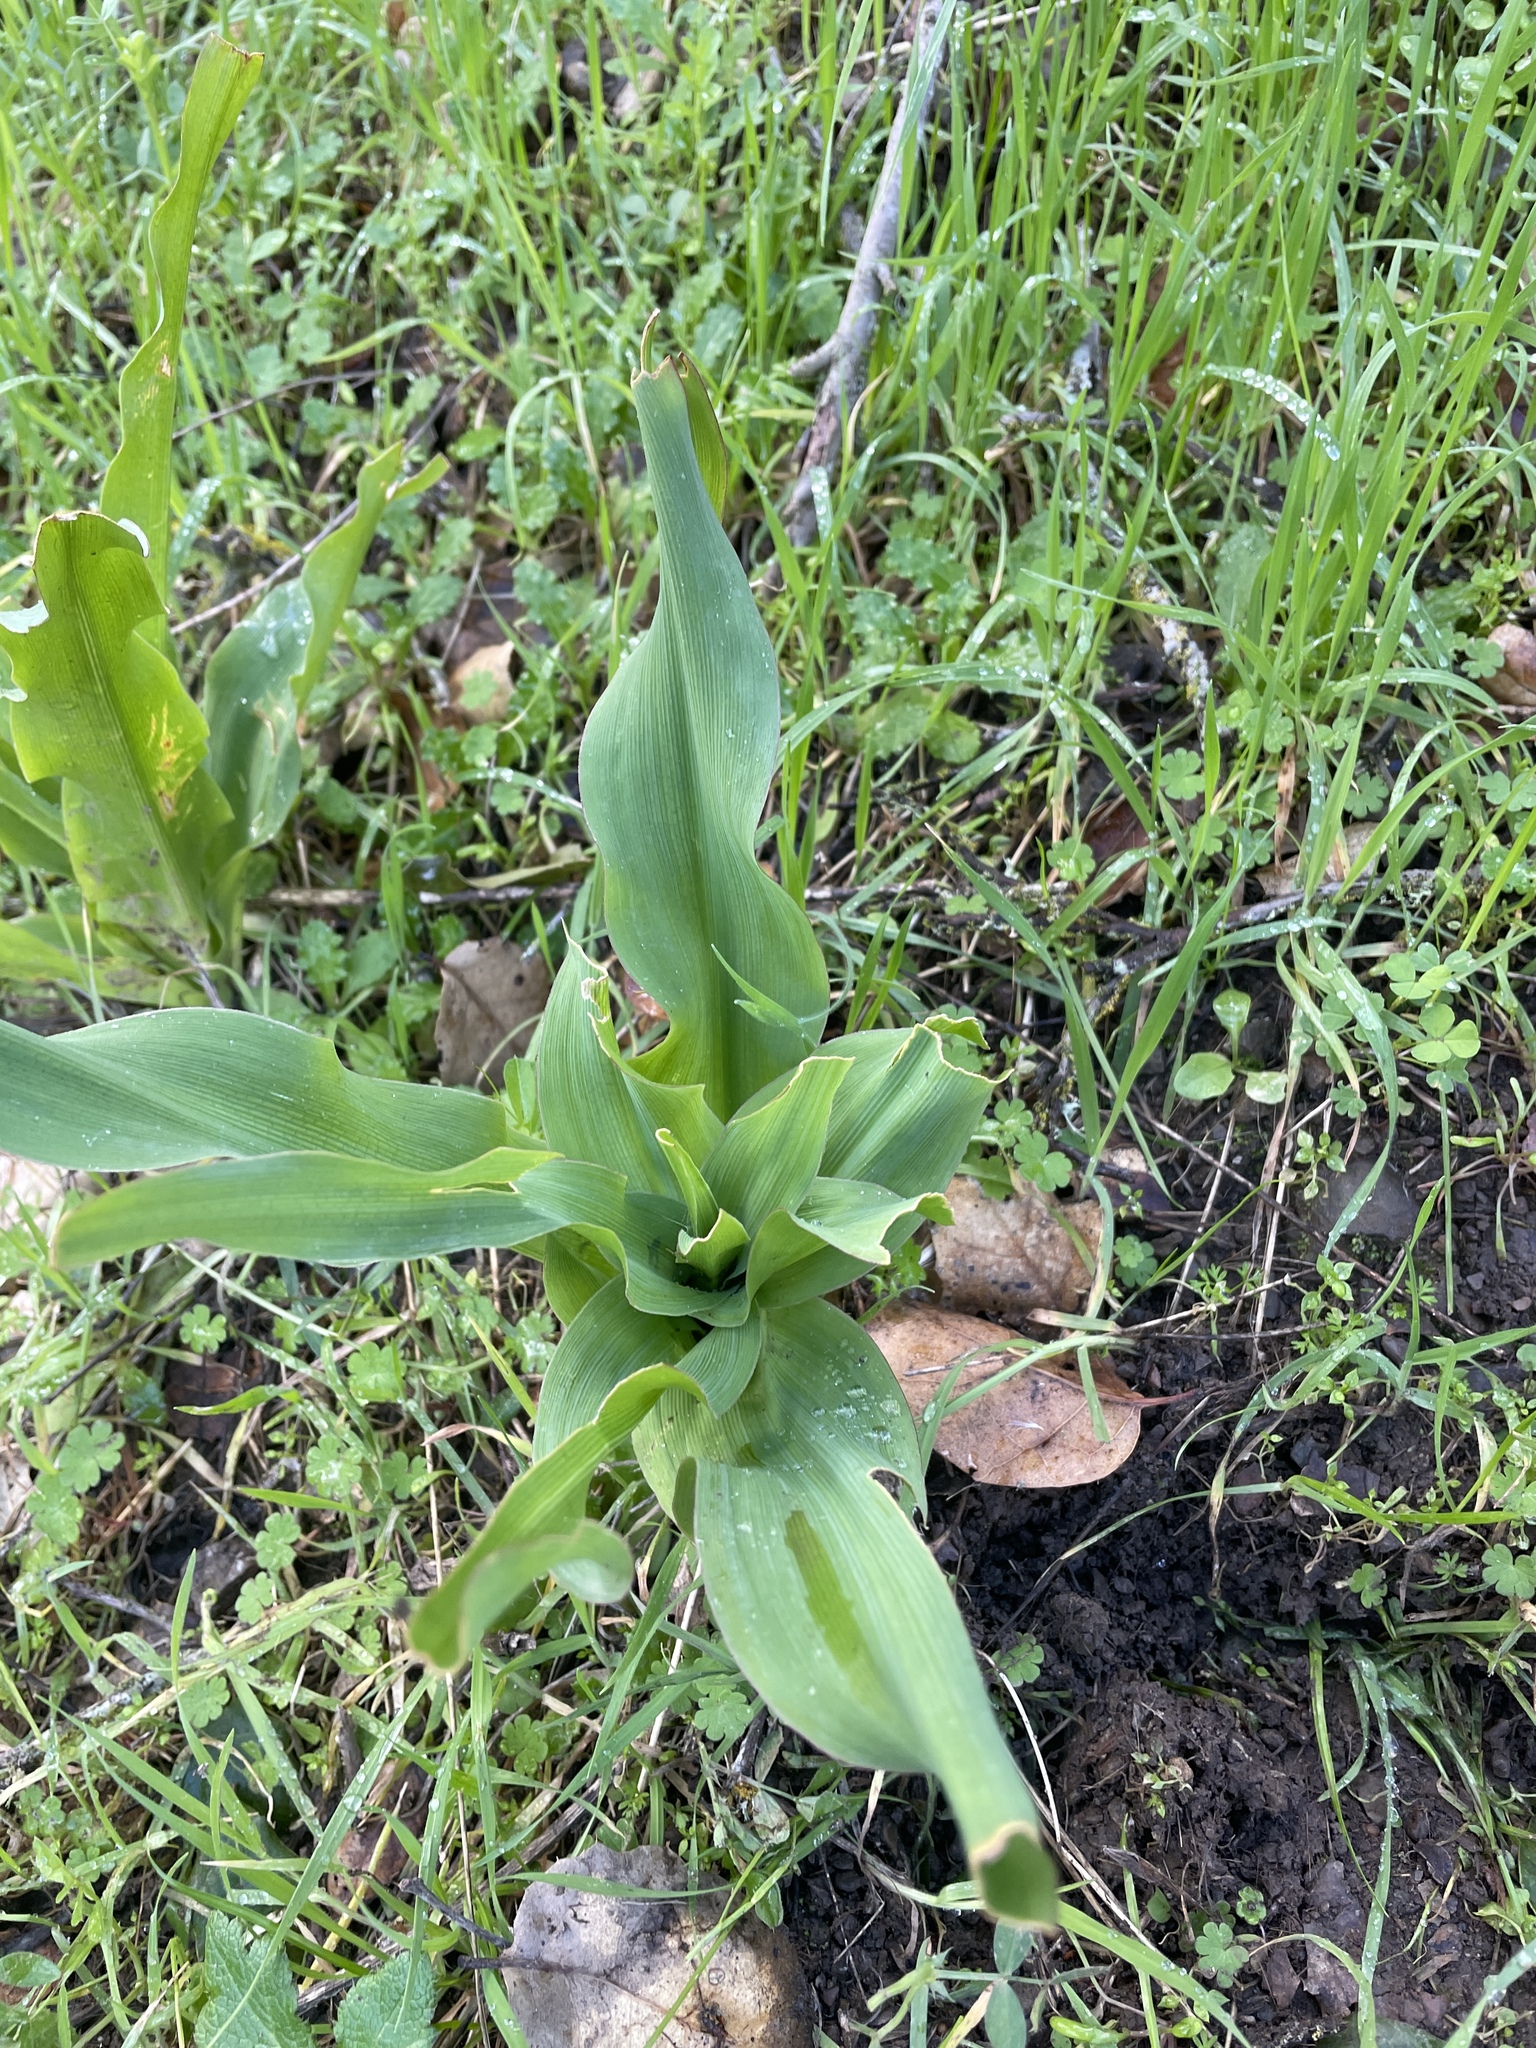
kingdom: Plantae
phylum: Tracheophyta
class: Liliopsida
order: Asparagales
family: Asparagaceae
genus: Chlorogalum
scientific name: Chlorogalum pomeridianum
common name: Amole
